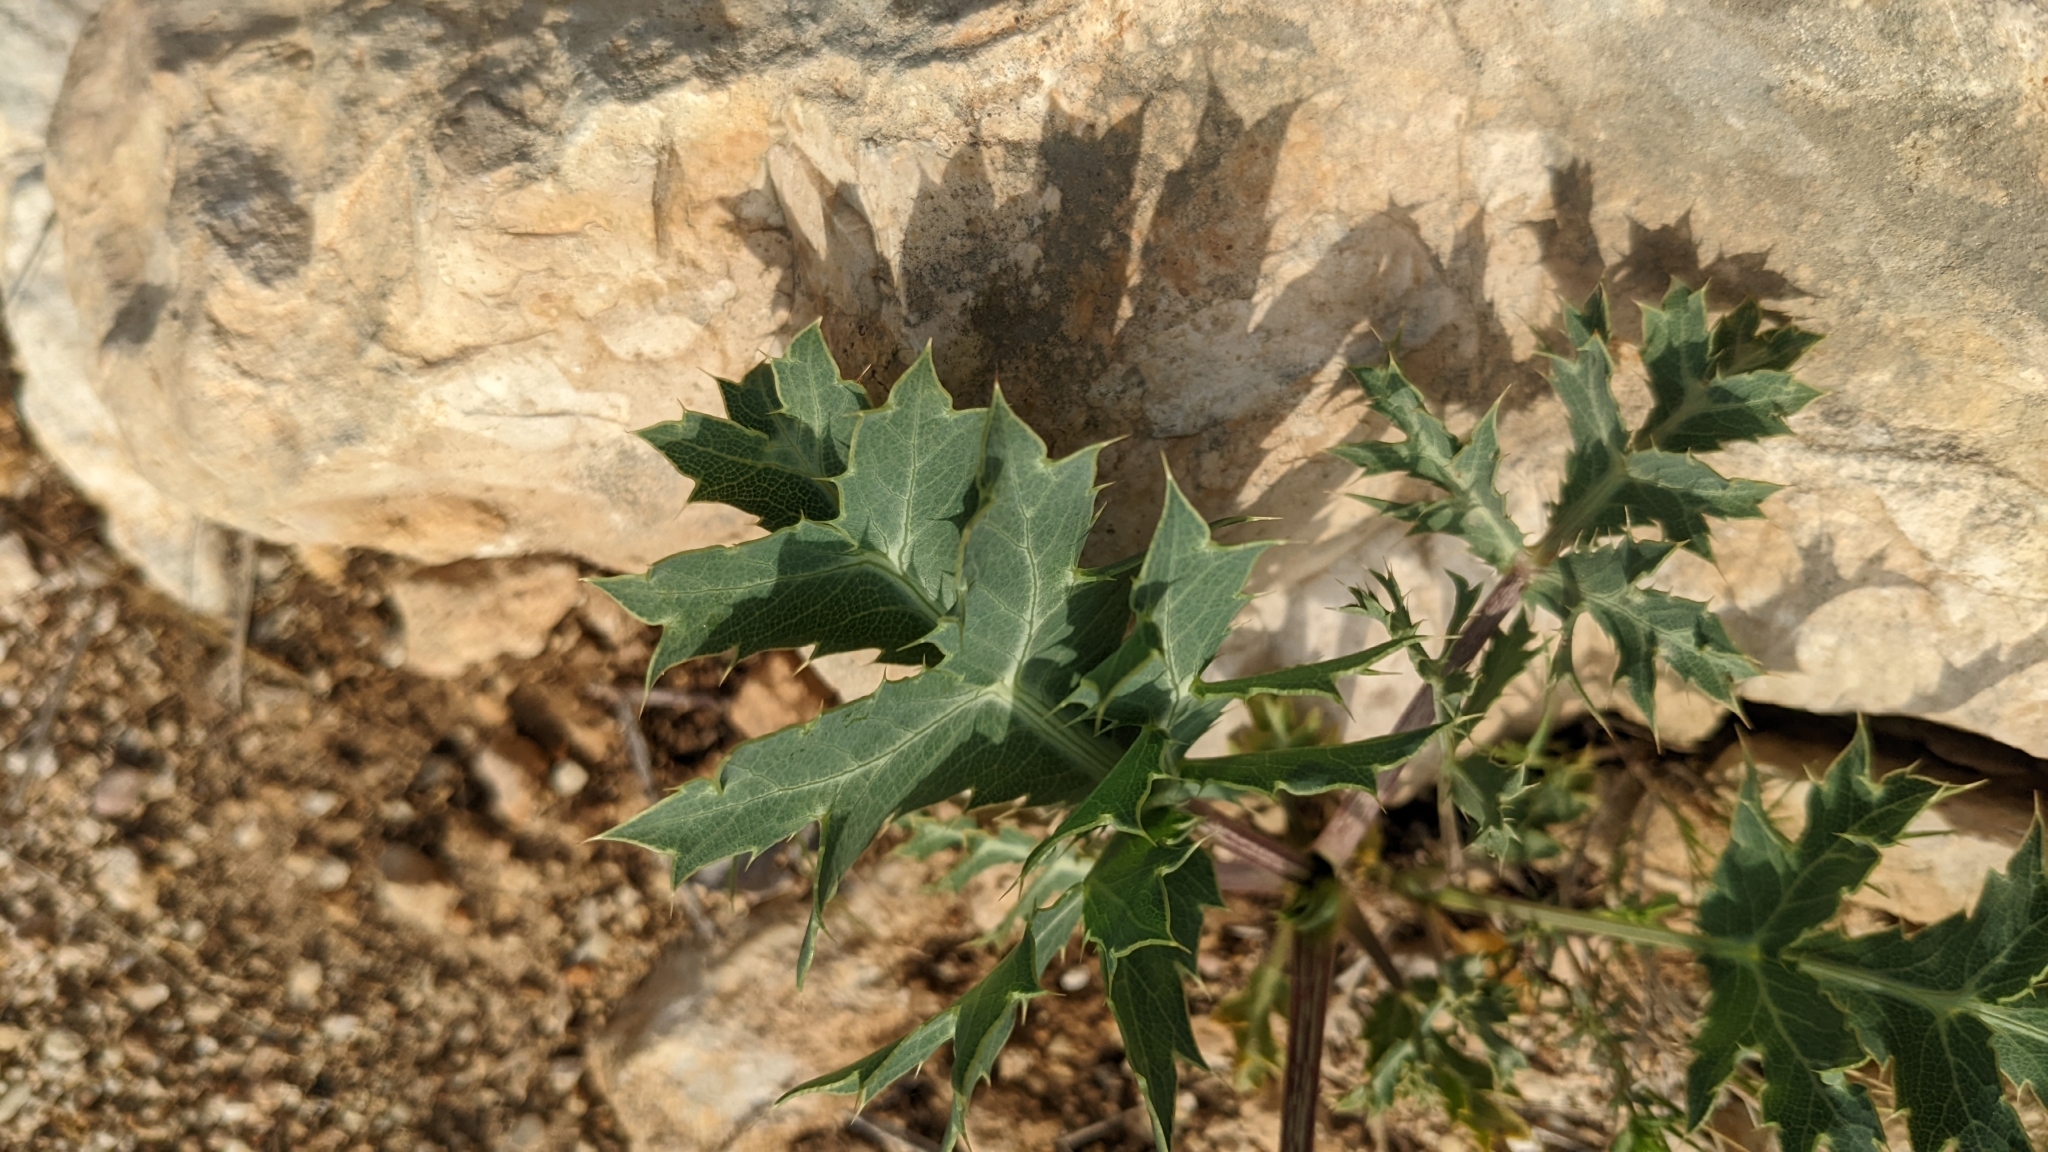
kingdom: Plantae
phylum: Tracheophyta
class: Magnoliopsida
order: Apiales
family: Apiaceae
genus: Eryngium
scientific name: Eryngium campestre
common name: Field eryngo
